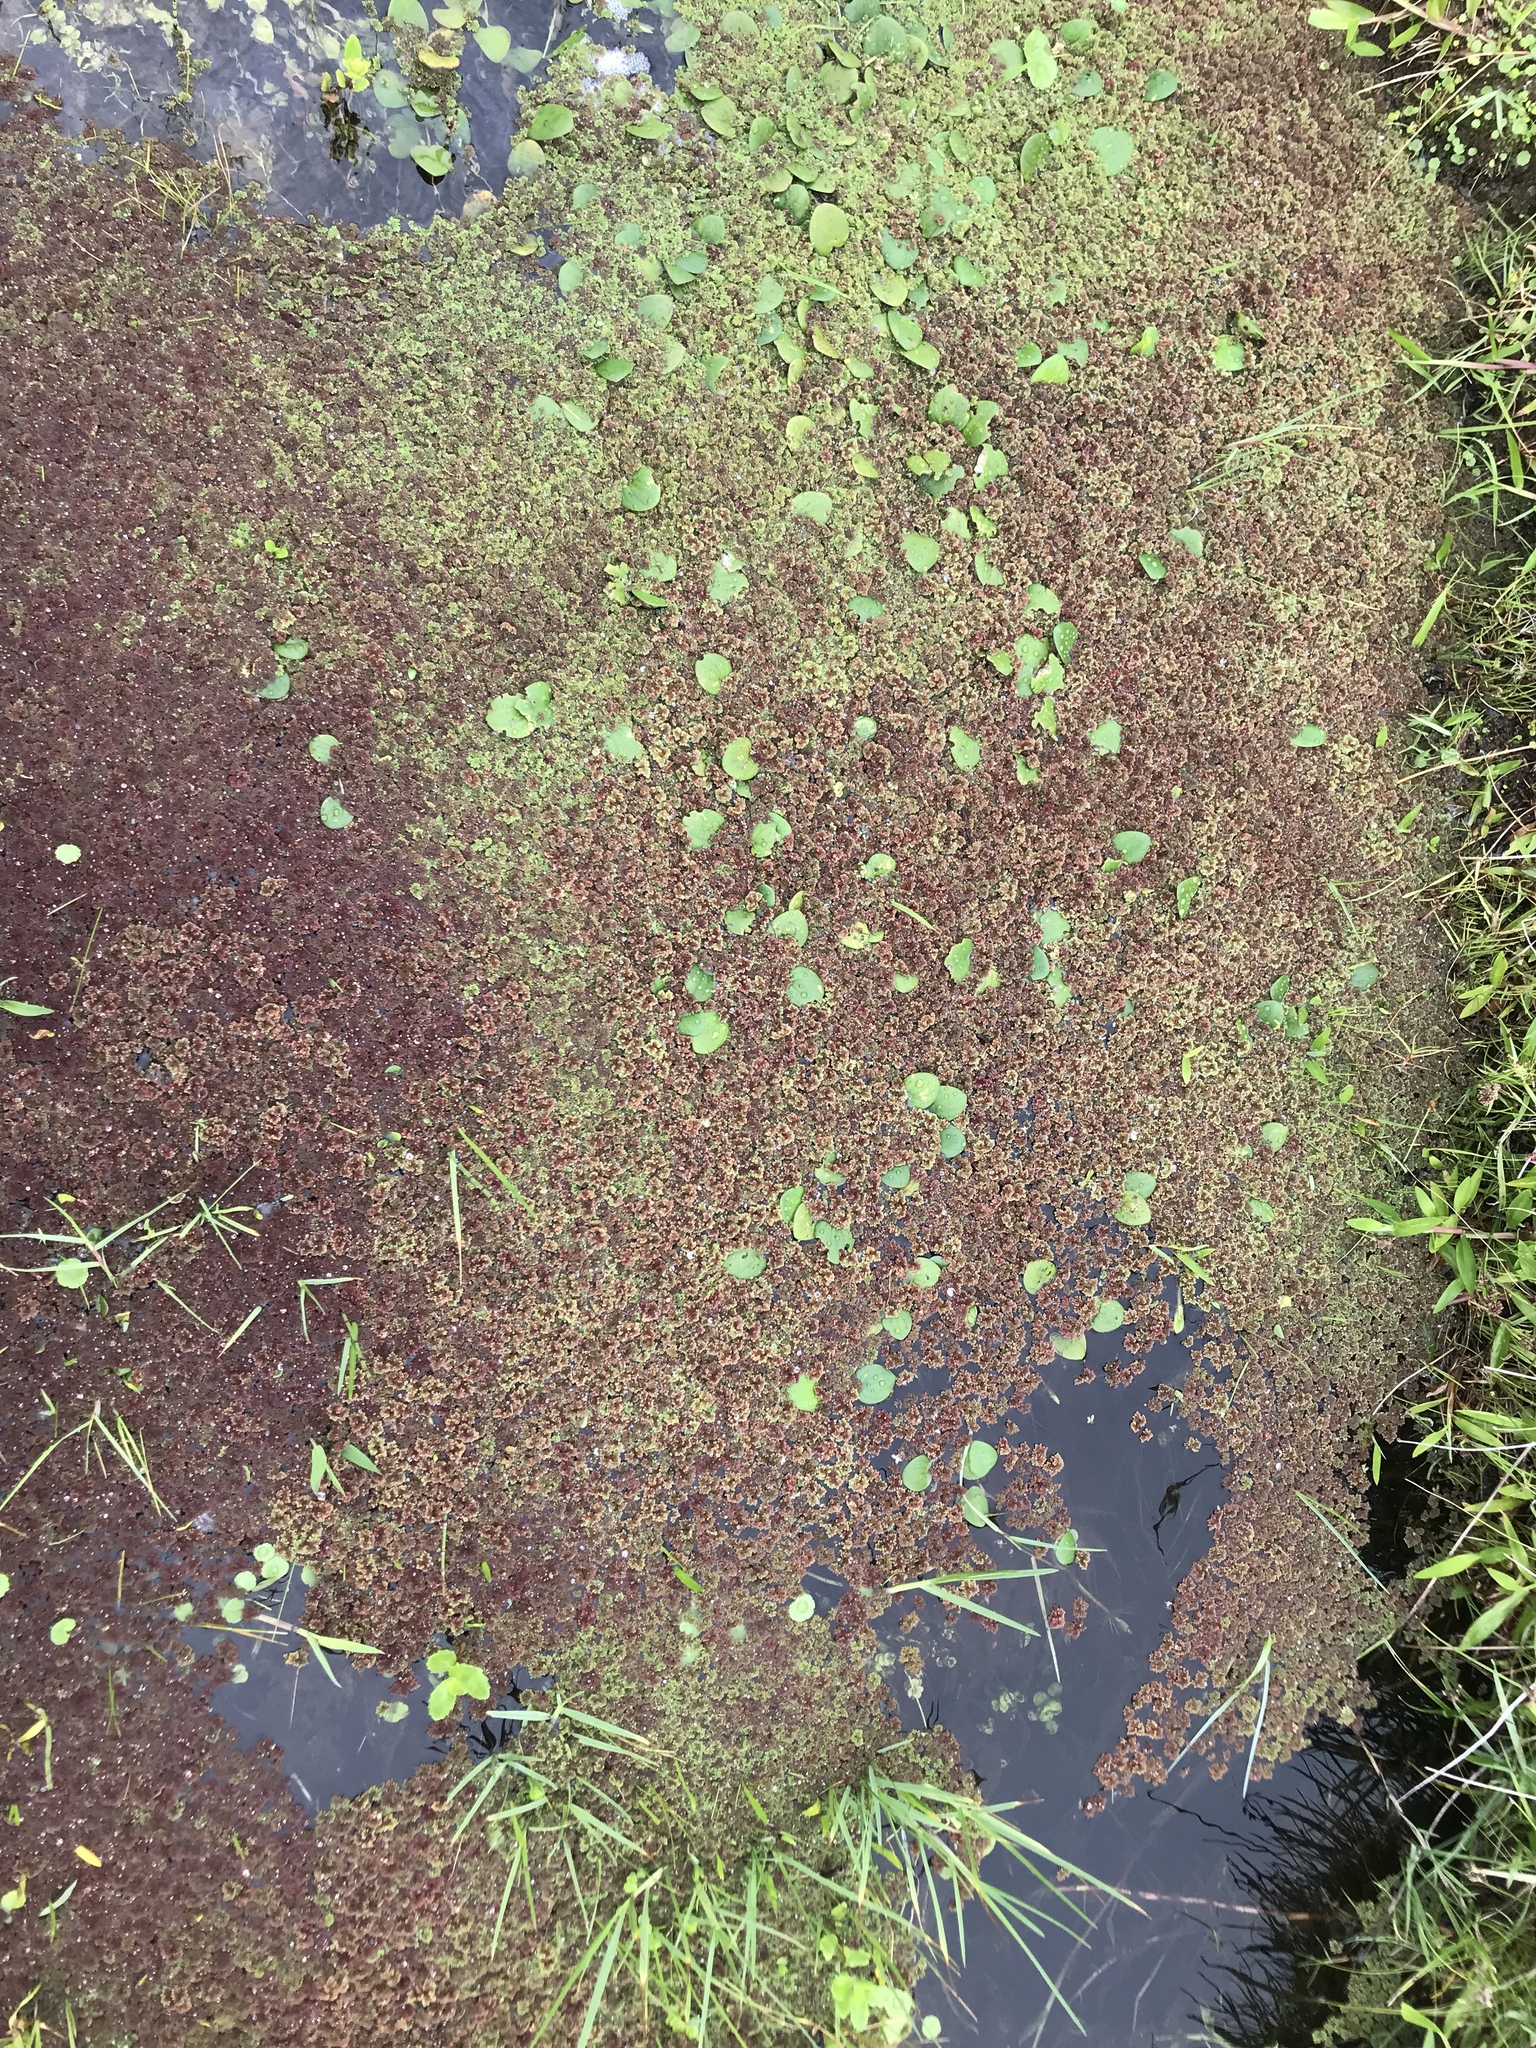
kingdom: Plantae
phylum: Tracheophyta
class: Polypodiopsida
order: Salviniales
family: Salviniaceae
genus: Azolla
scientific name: Azolla filiculoides
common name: Water fern
